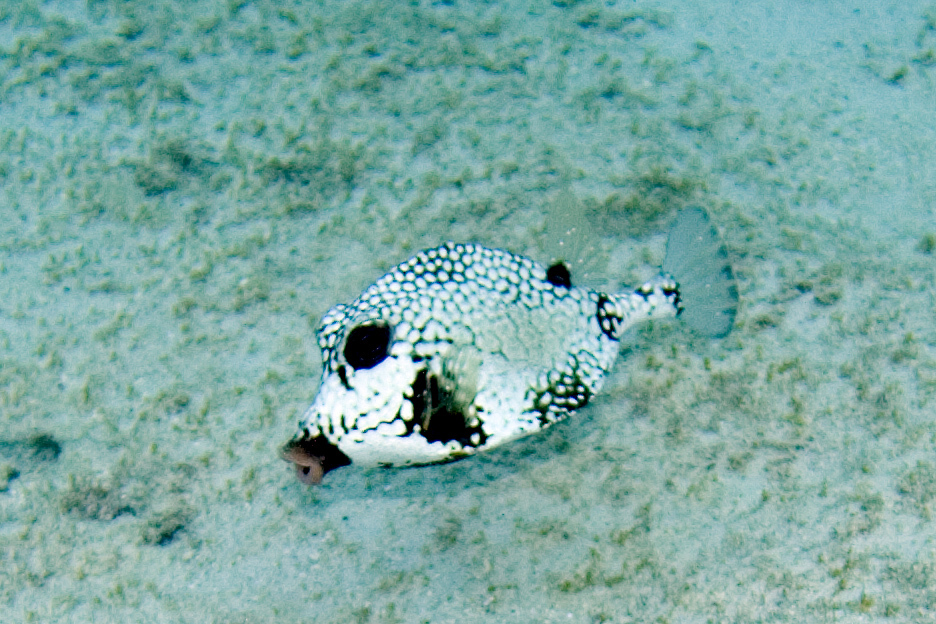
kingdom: Animalia
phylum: Chordata
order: Tetraodontiformes
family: Ostraciidae
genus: Lactophrys
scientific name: Lactophrys triqueter
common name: Smooth trunkfish
